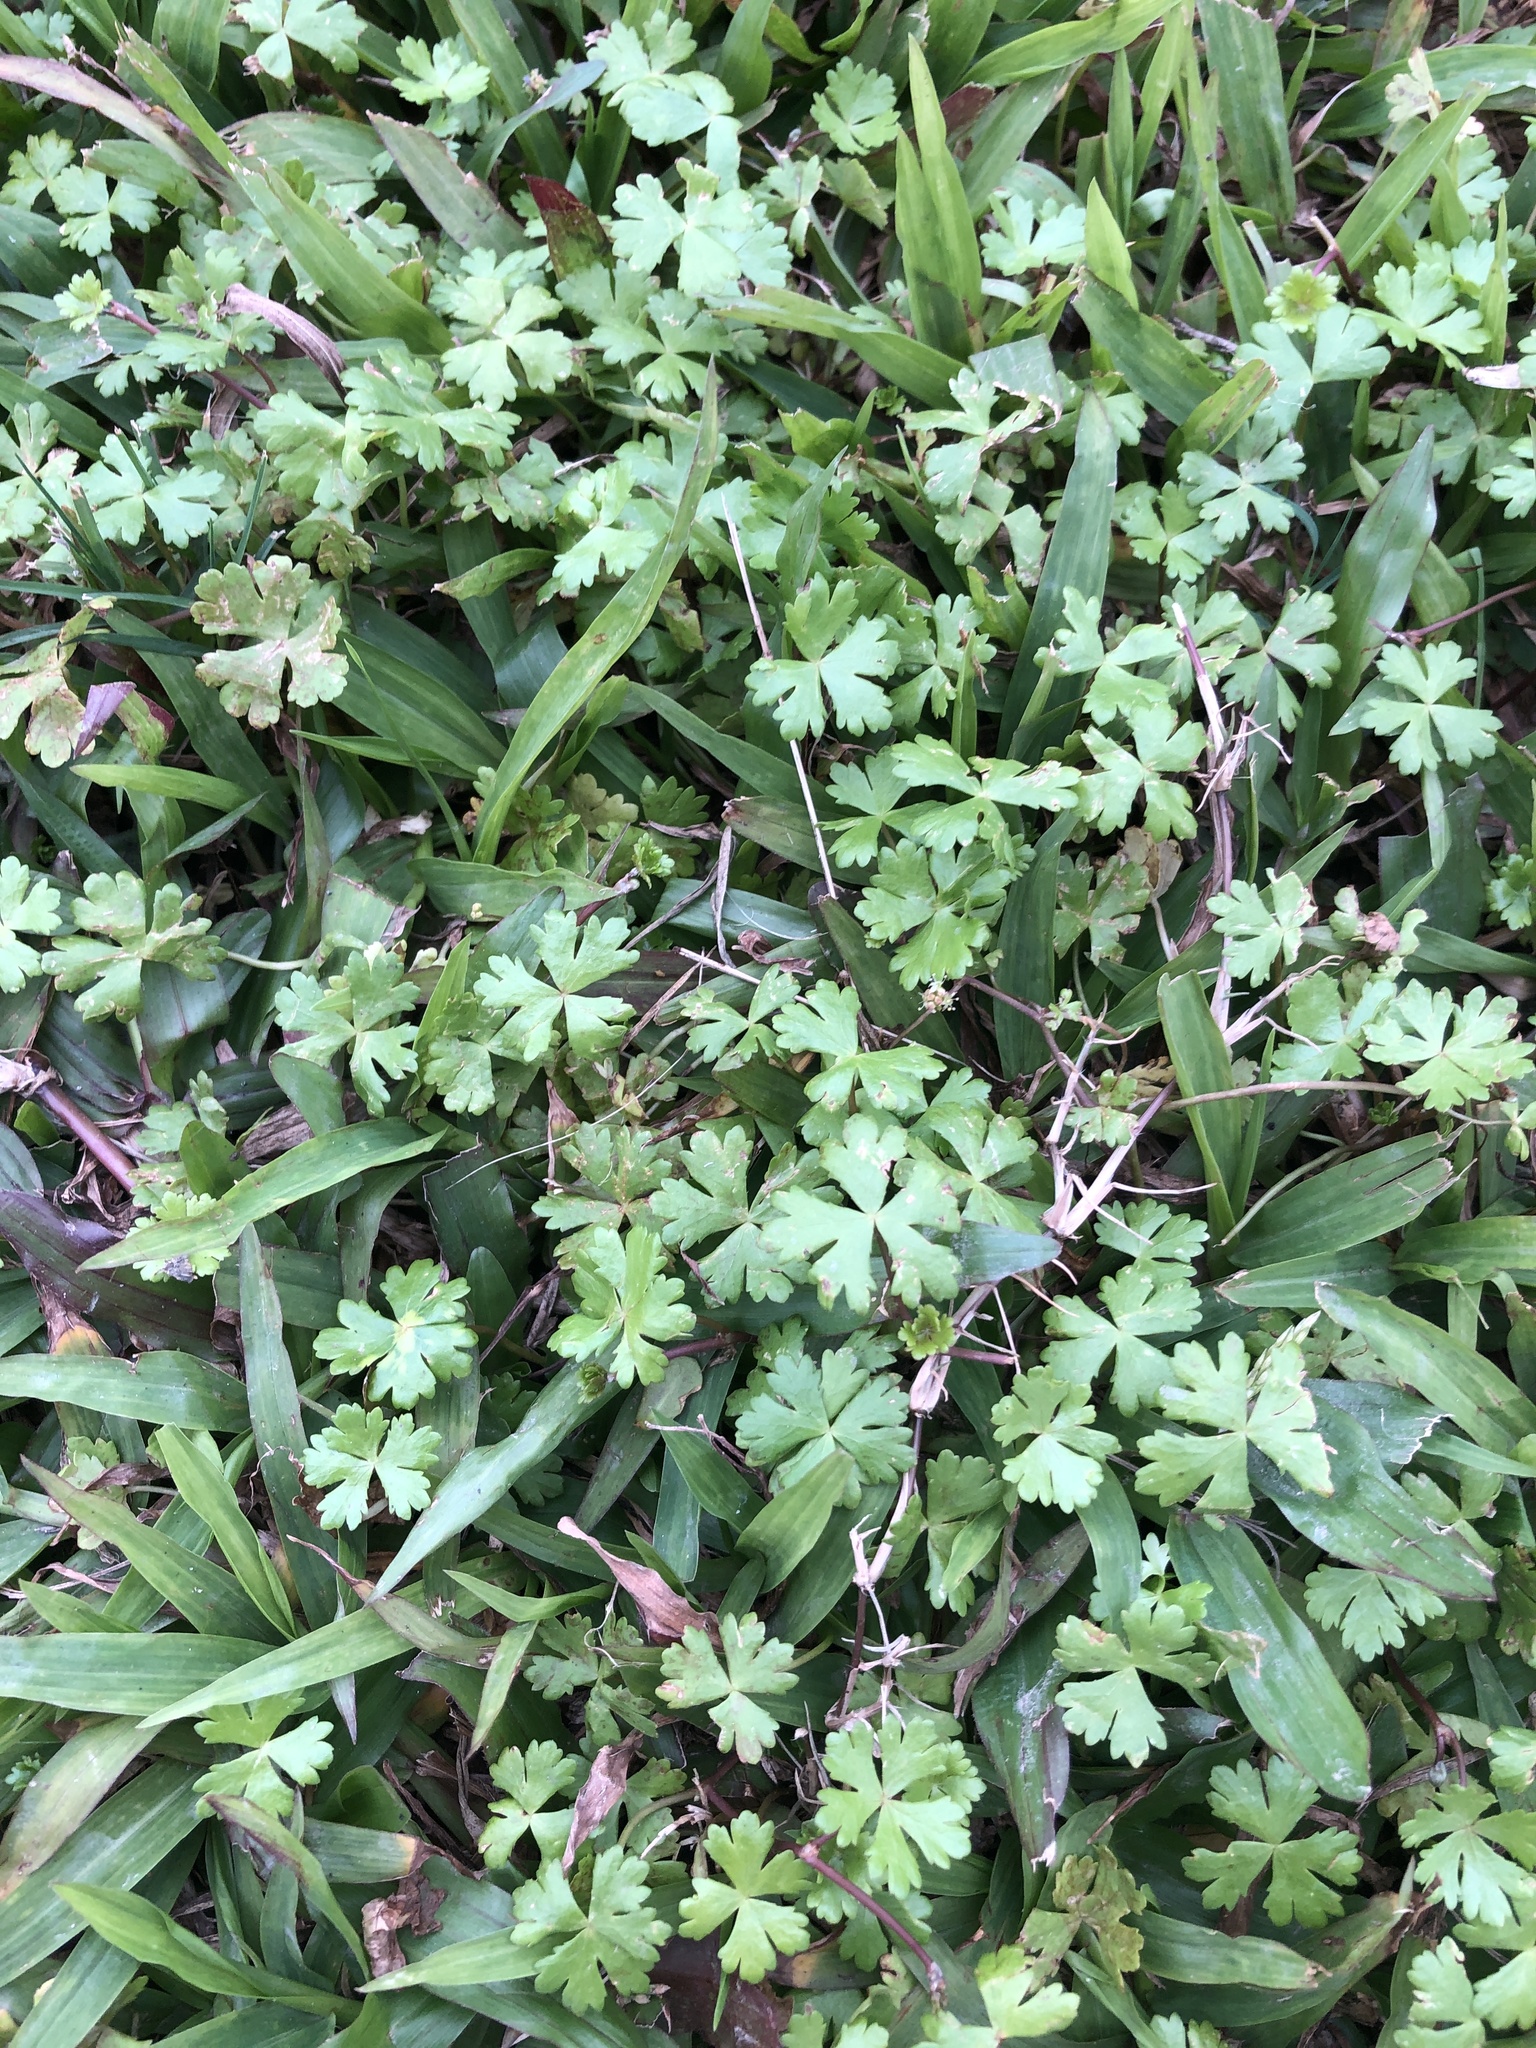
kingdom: Plantae
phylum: Tracheophyta
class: Magnoliopsida
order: Apiales
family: Araliaceae
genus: Hydrocotyle
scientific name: Hydrocotyle batrachium
